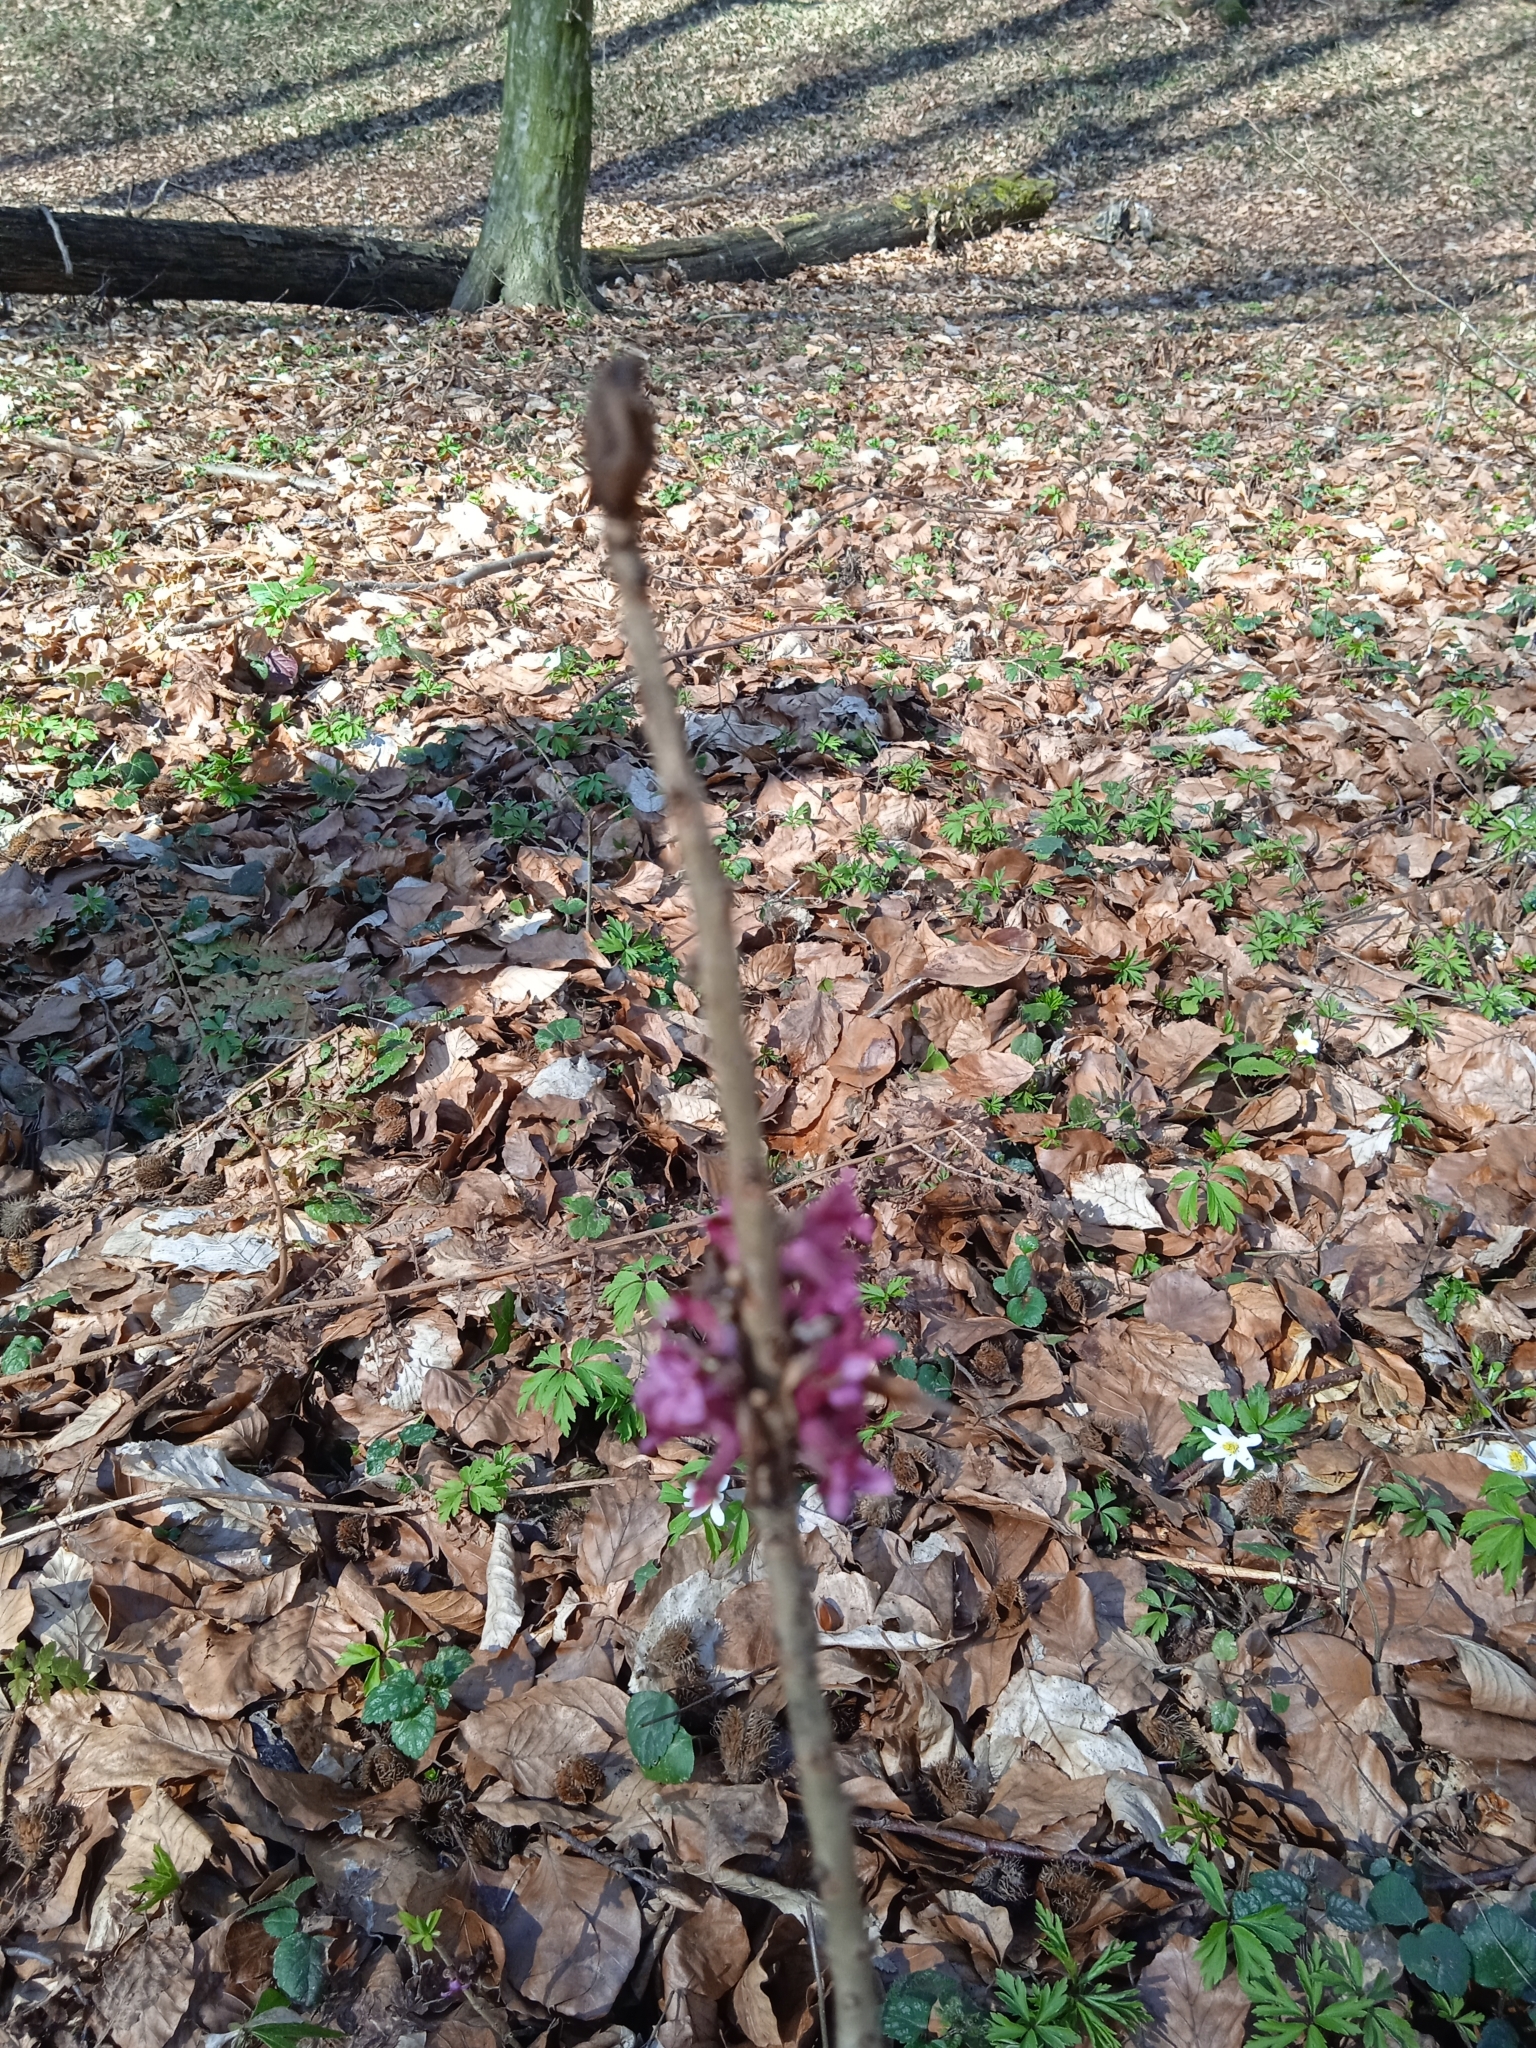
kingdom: Plantae
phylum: Tracheophyta
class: Magnoliopsida
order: Malvales
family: Thymelaeaceae
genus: Daphne
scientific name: Daphne mezereum
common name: Mezereon
